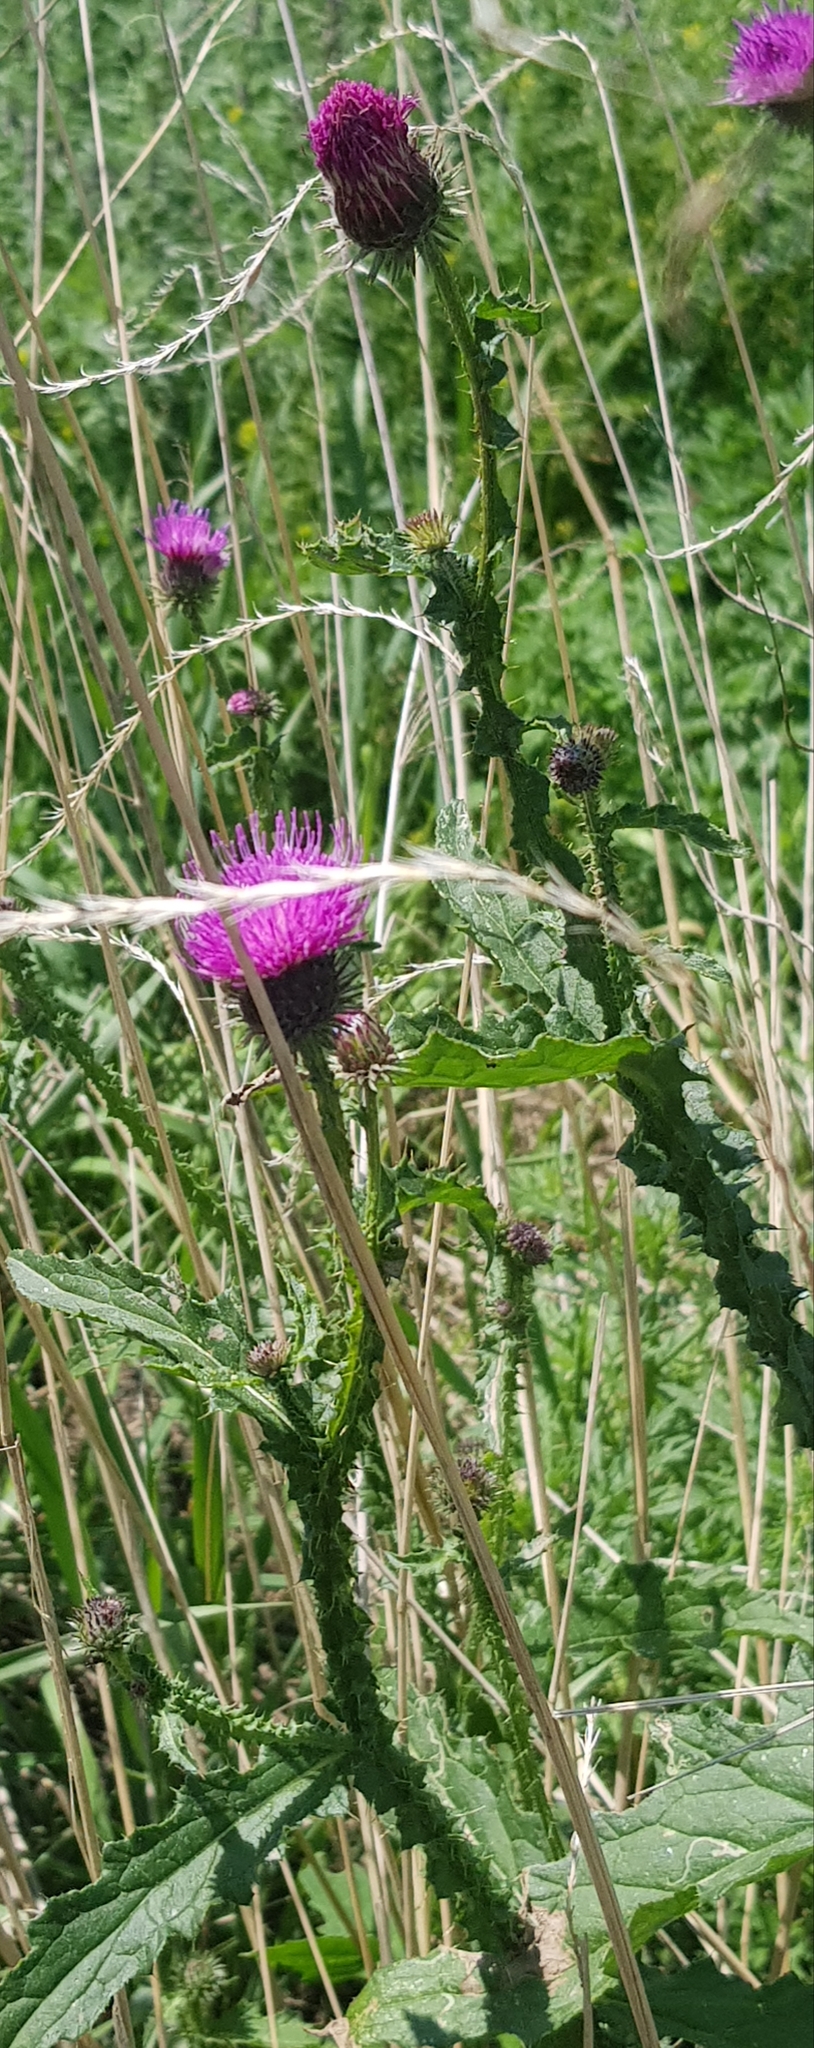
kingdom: Plantae
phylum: Tracheophyta
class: Magnoliopsida
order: Asterales
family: Asteraceae
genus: Carduus
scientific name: Carduus crispus
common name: Welted thistle
